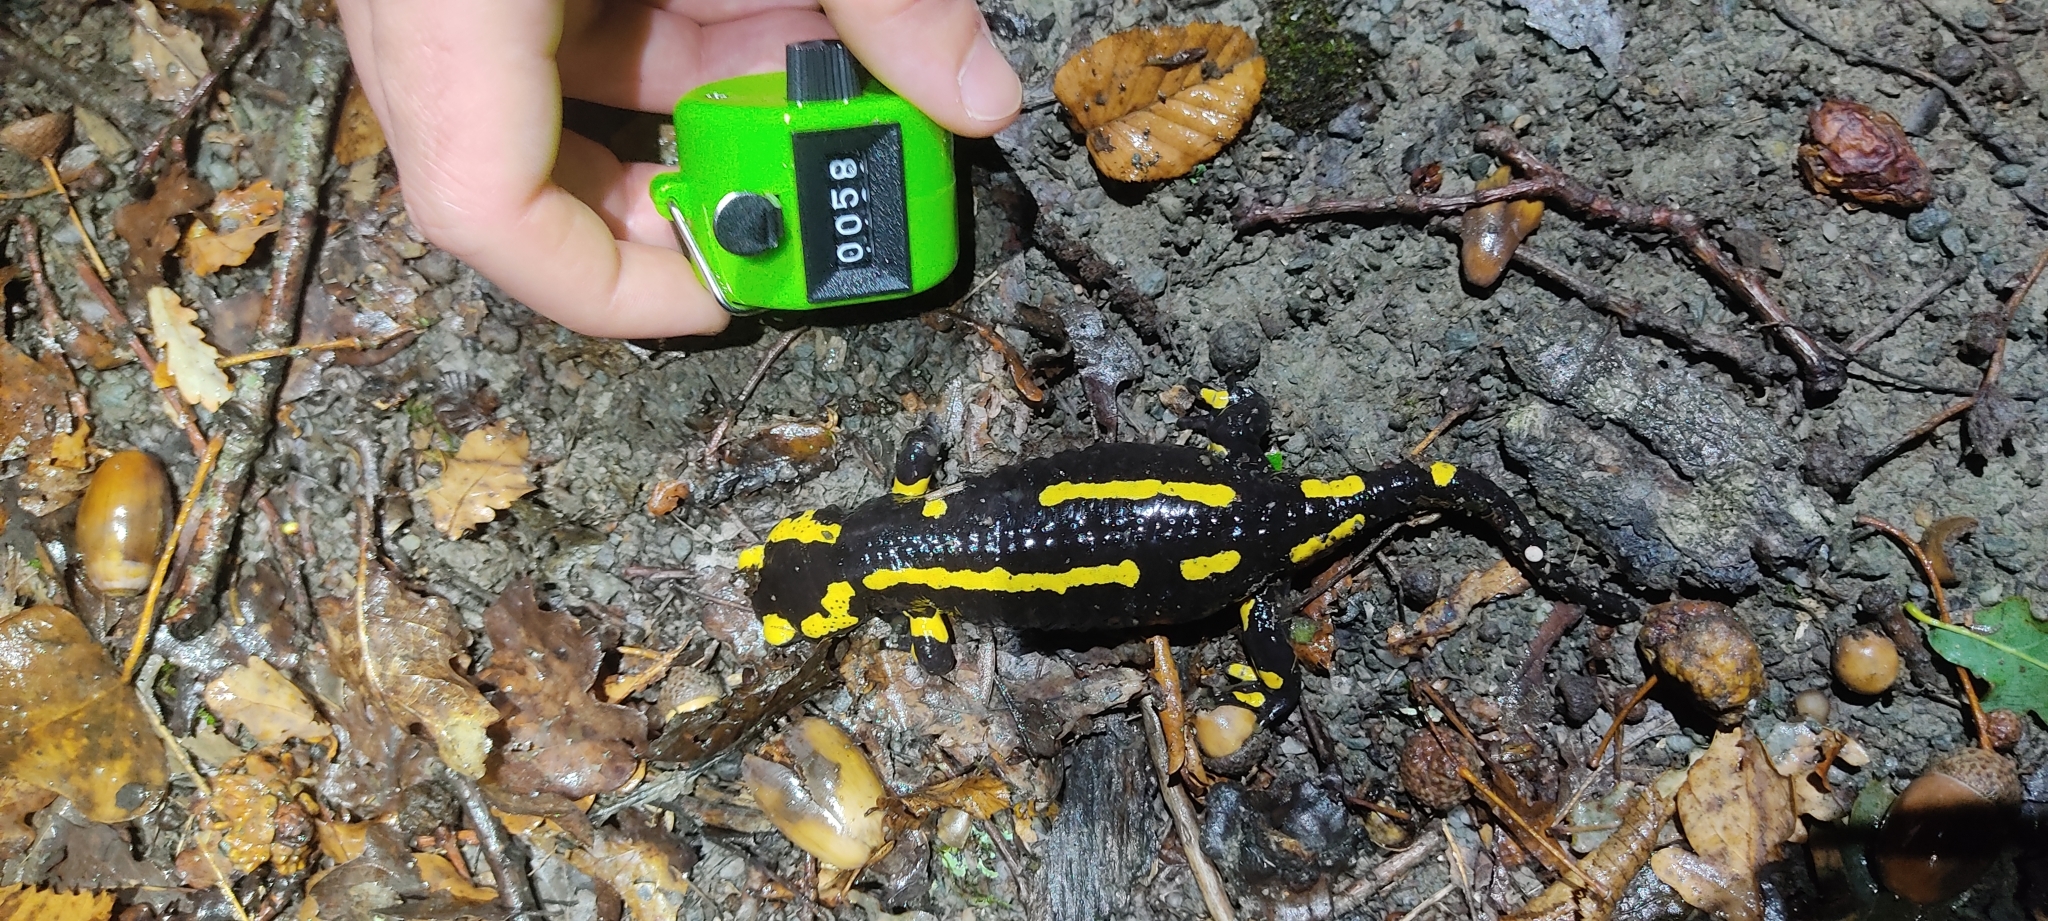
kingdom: Animalia
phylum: Chordata
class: Amphibia
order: Caudata
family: Salamandridae
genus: Salamandra
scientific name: Salamandra salamandra
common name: Fire salamander
